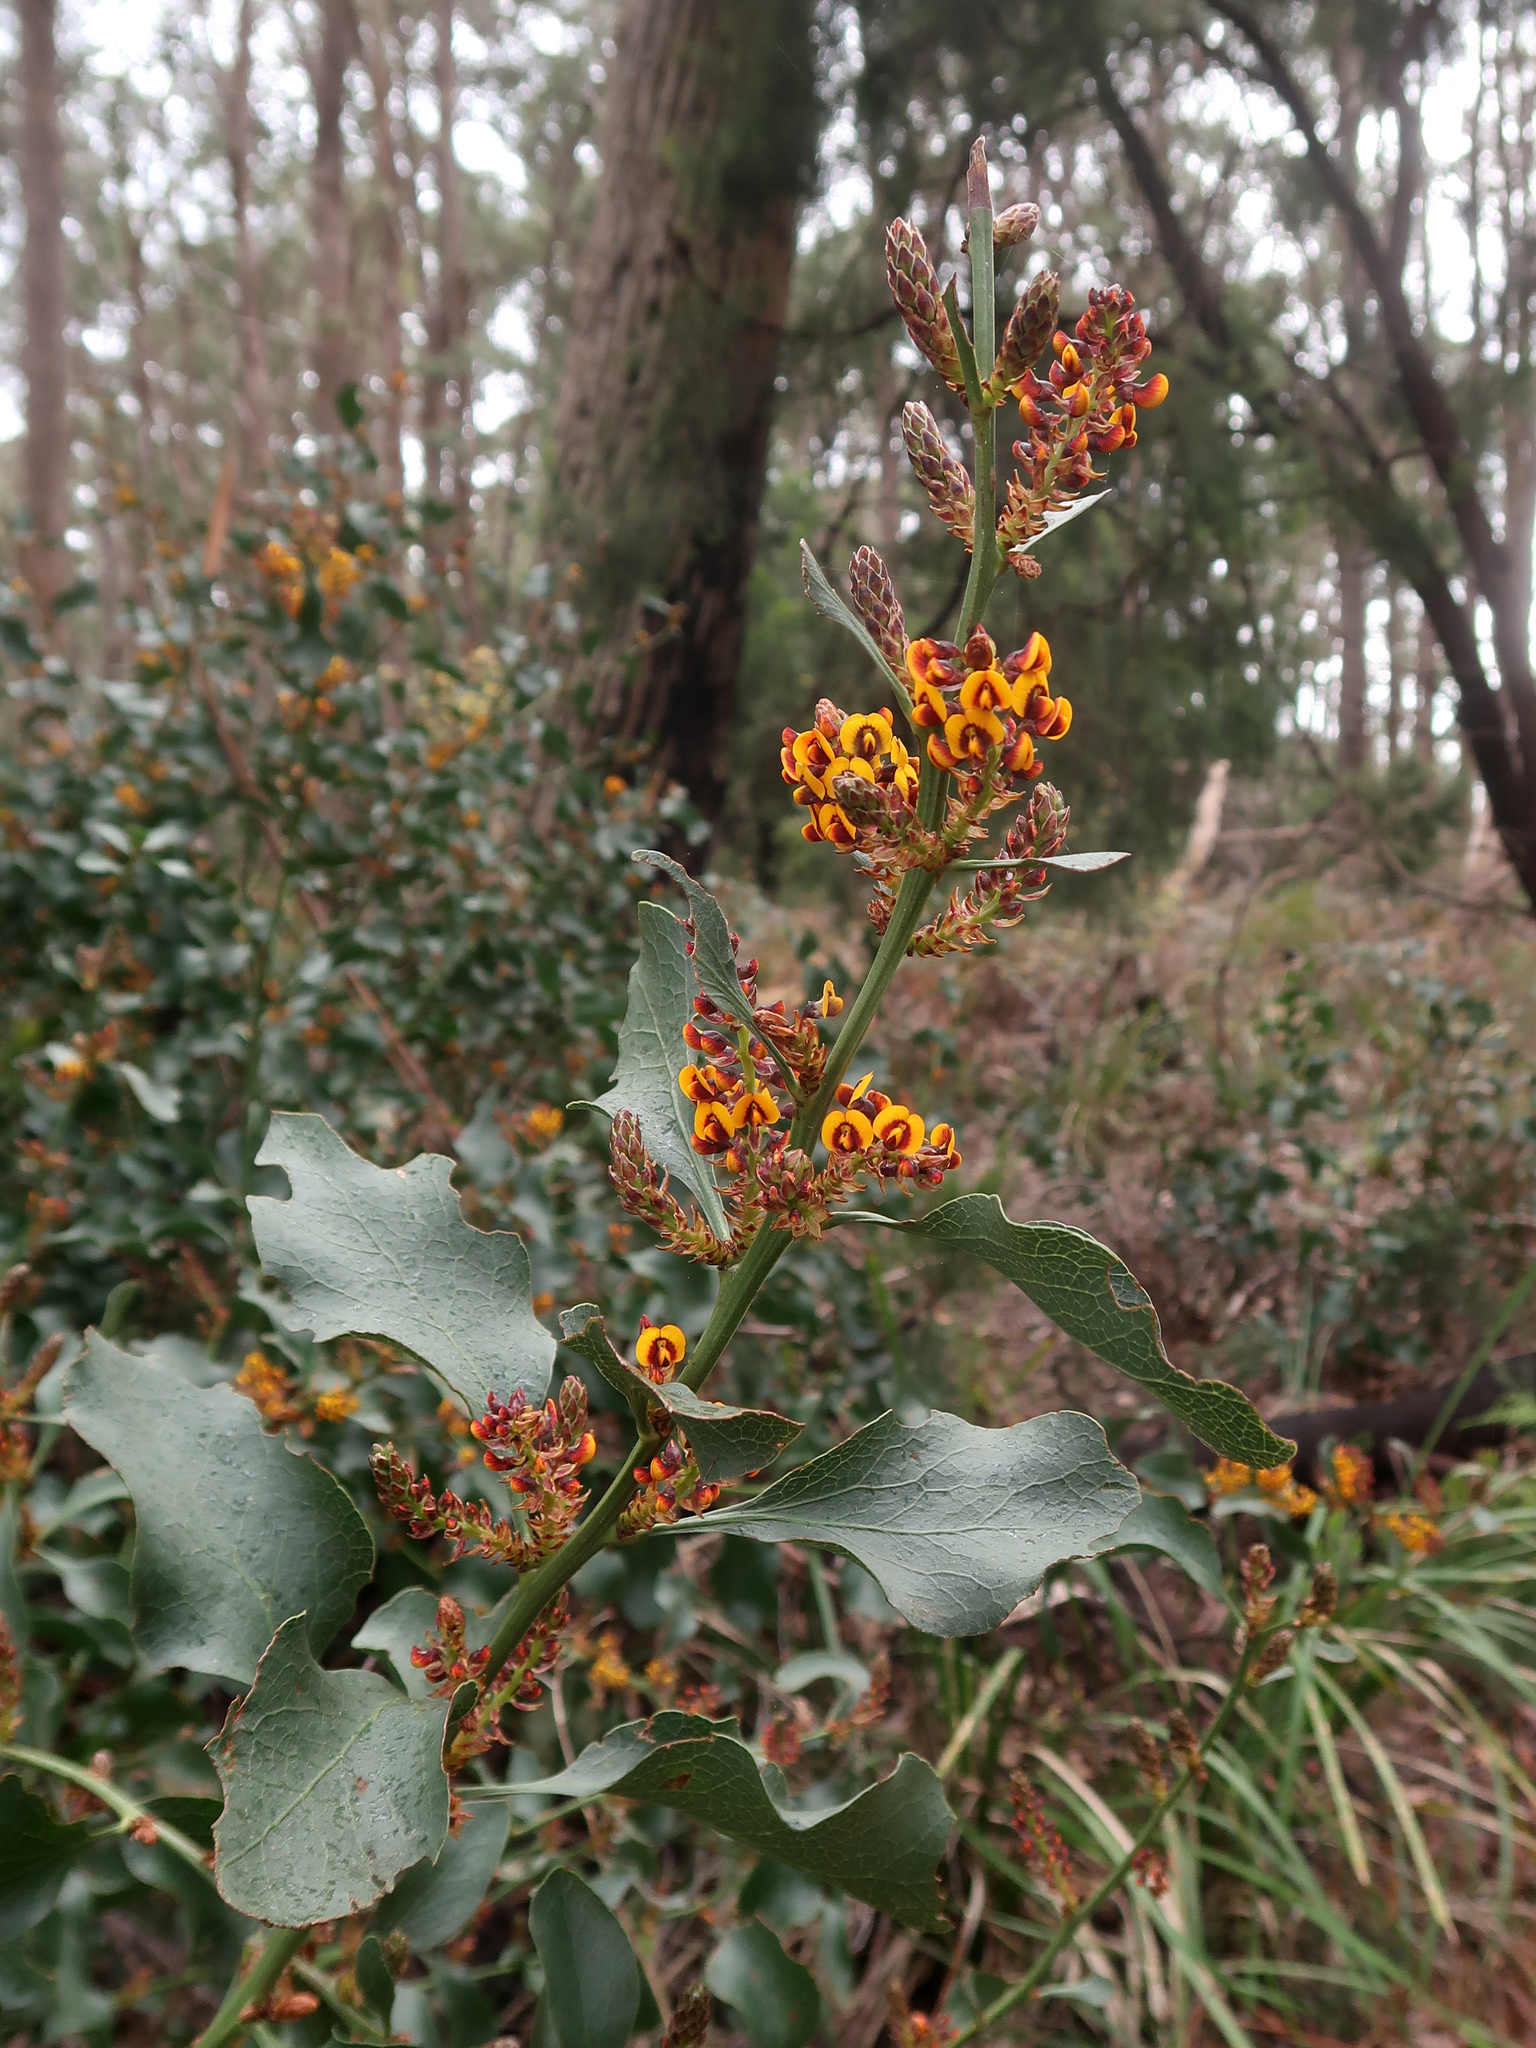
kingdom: Plantae
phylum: Tracheophyta
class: Magnoliopsida
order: Fabales
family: Fabaceae
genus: Daviesia
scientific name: Daviesia latifolia
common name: Hop bitter-pea
